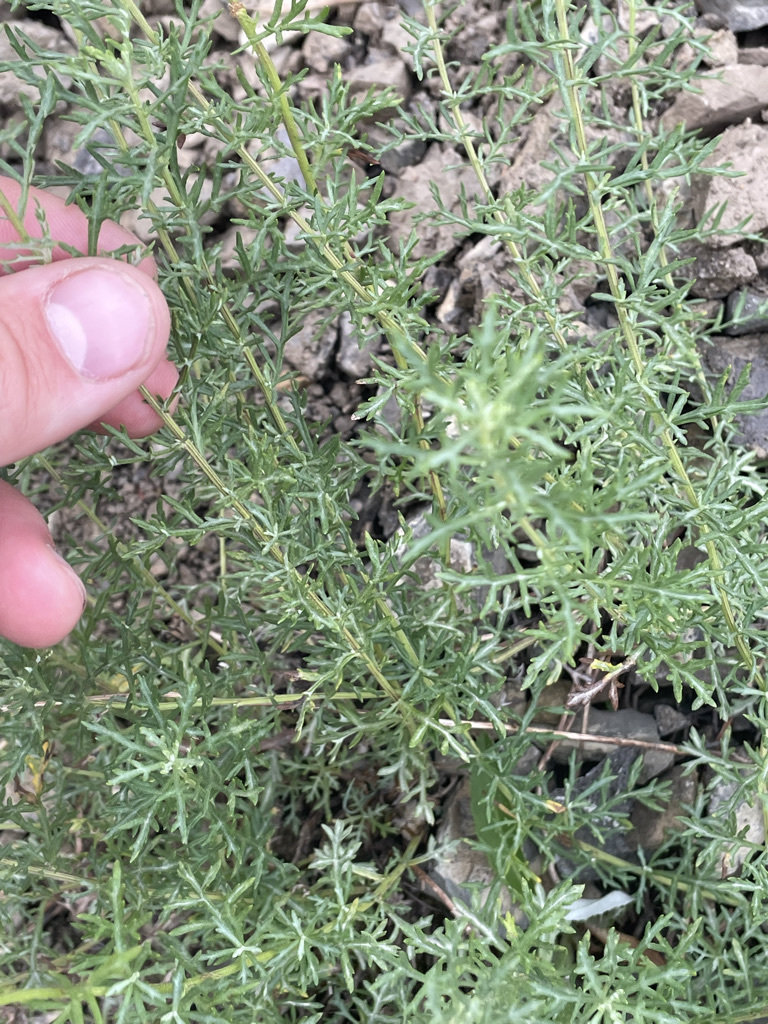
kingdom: Plantae
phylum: Tracheophyta
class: Magnoliopsida
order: Asterales
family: Asteraceae
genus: Artemisia
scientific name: Artemisia michauxiana
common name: Lemon sagewort
